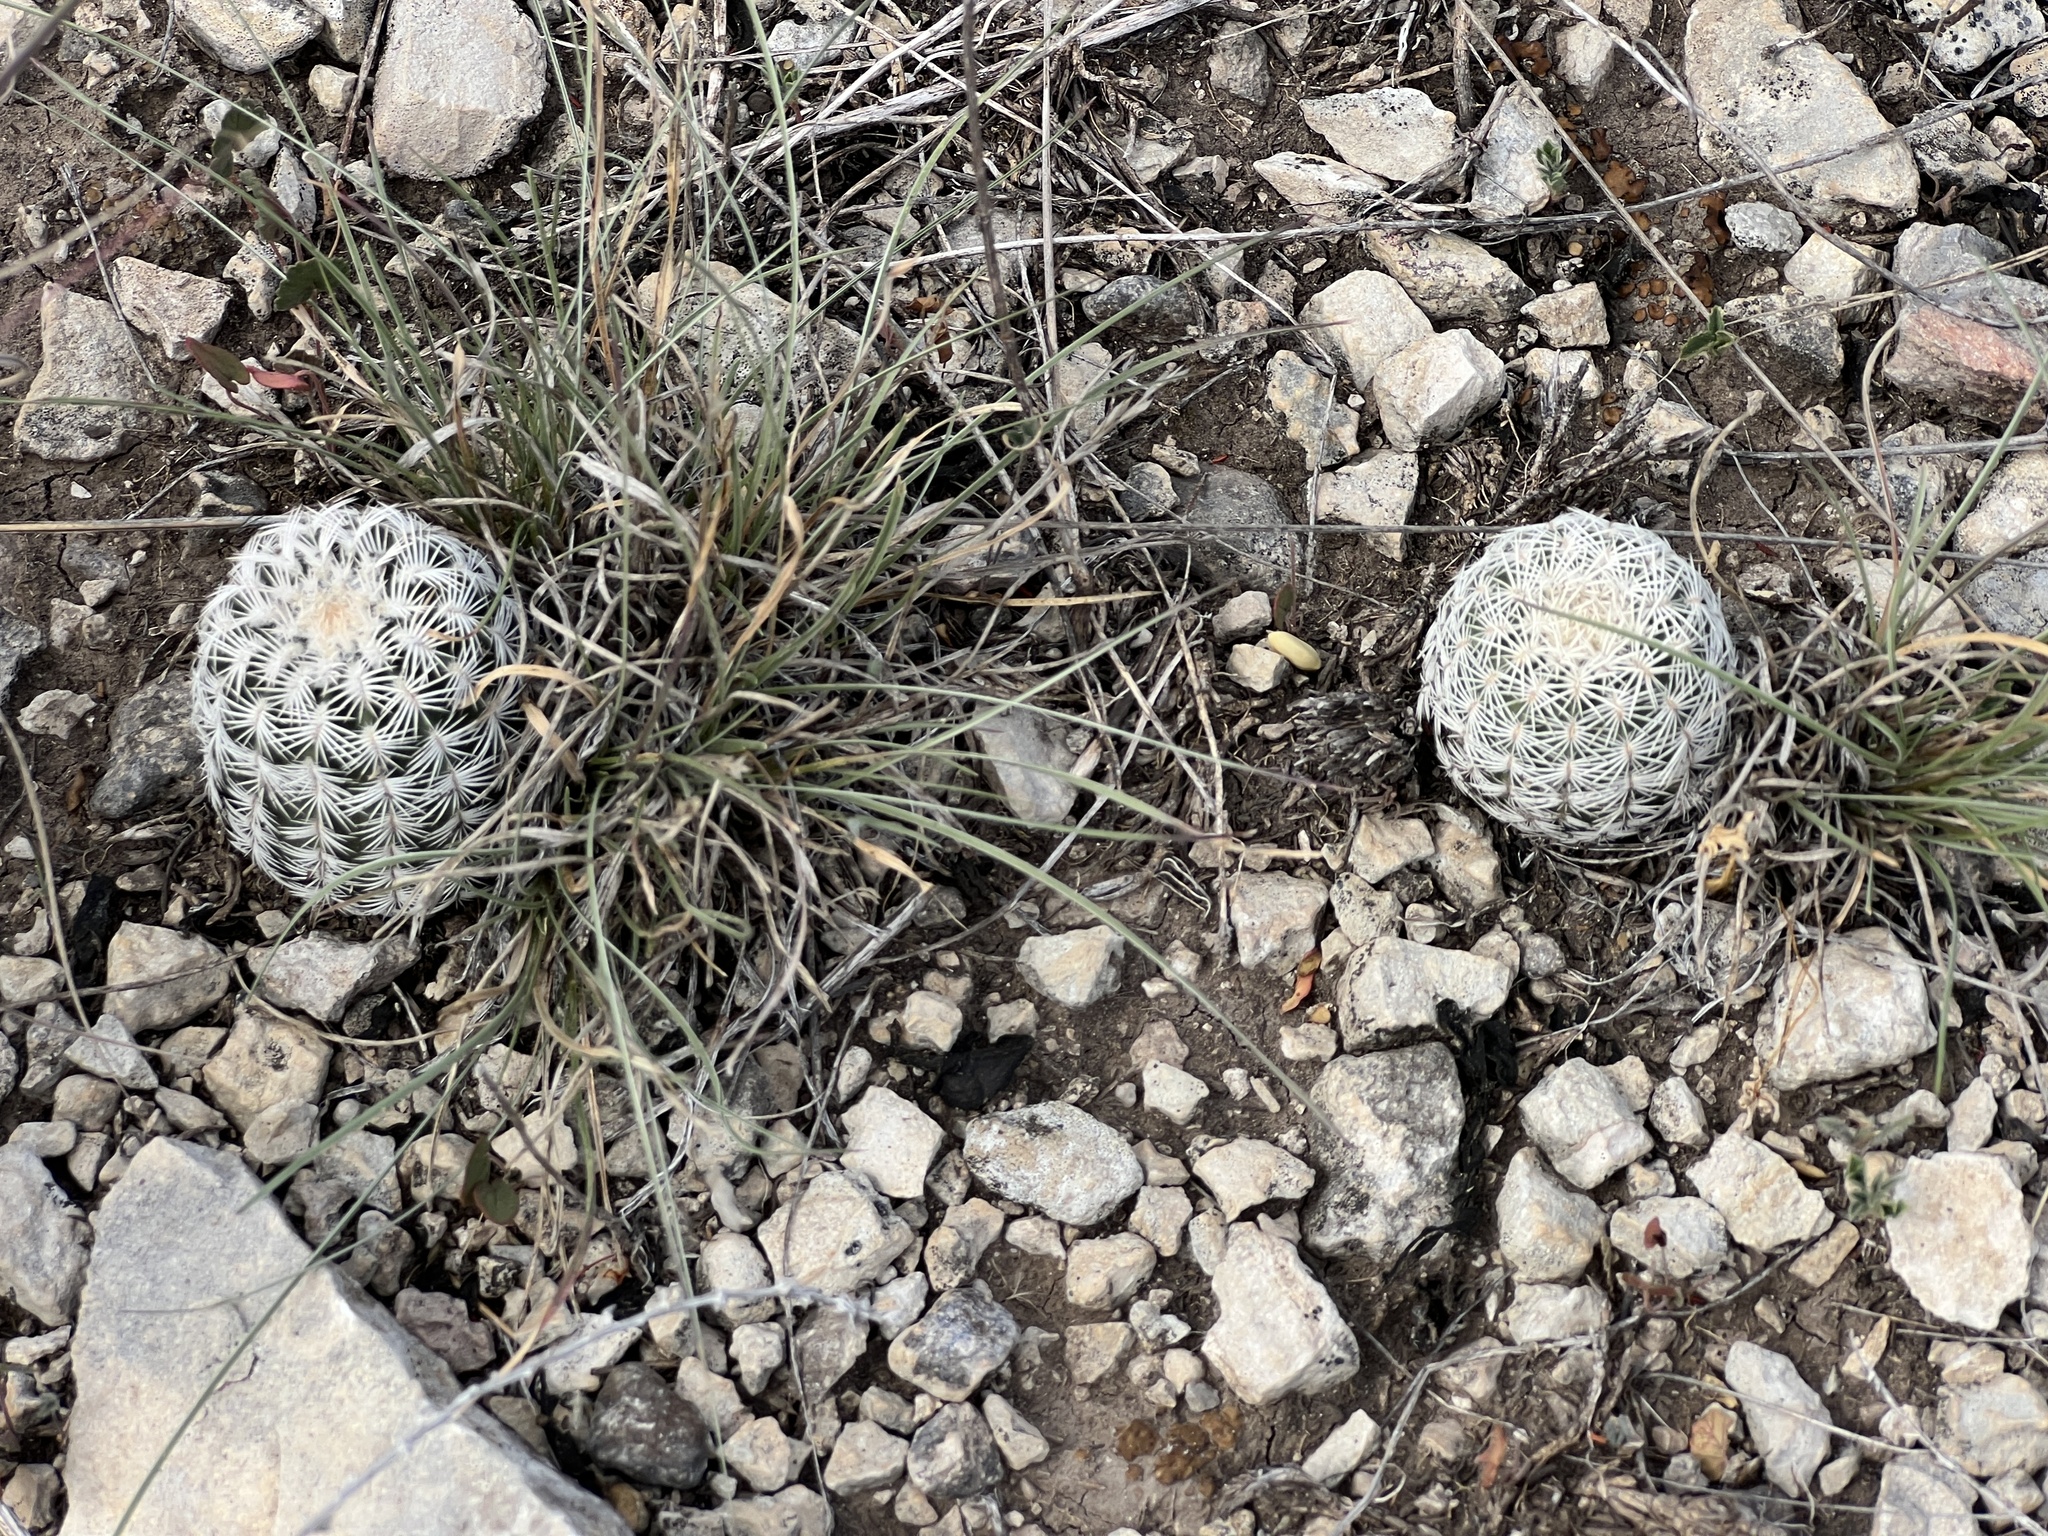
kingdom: Plantae
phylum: Tracheophyta
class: Magnoliopsida
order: Caryophyllales
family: Cactaceae
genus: Echinocereus
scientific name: Echinocereus reichenbachii
